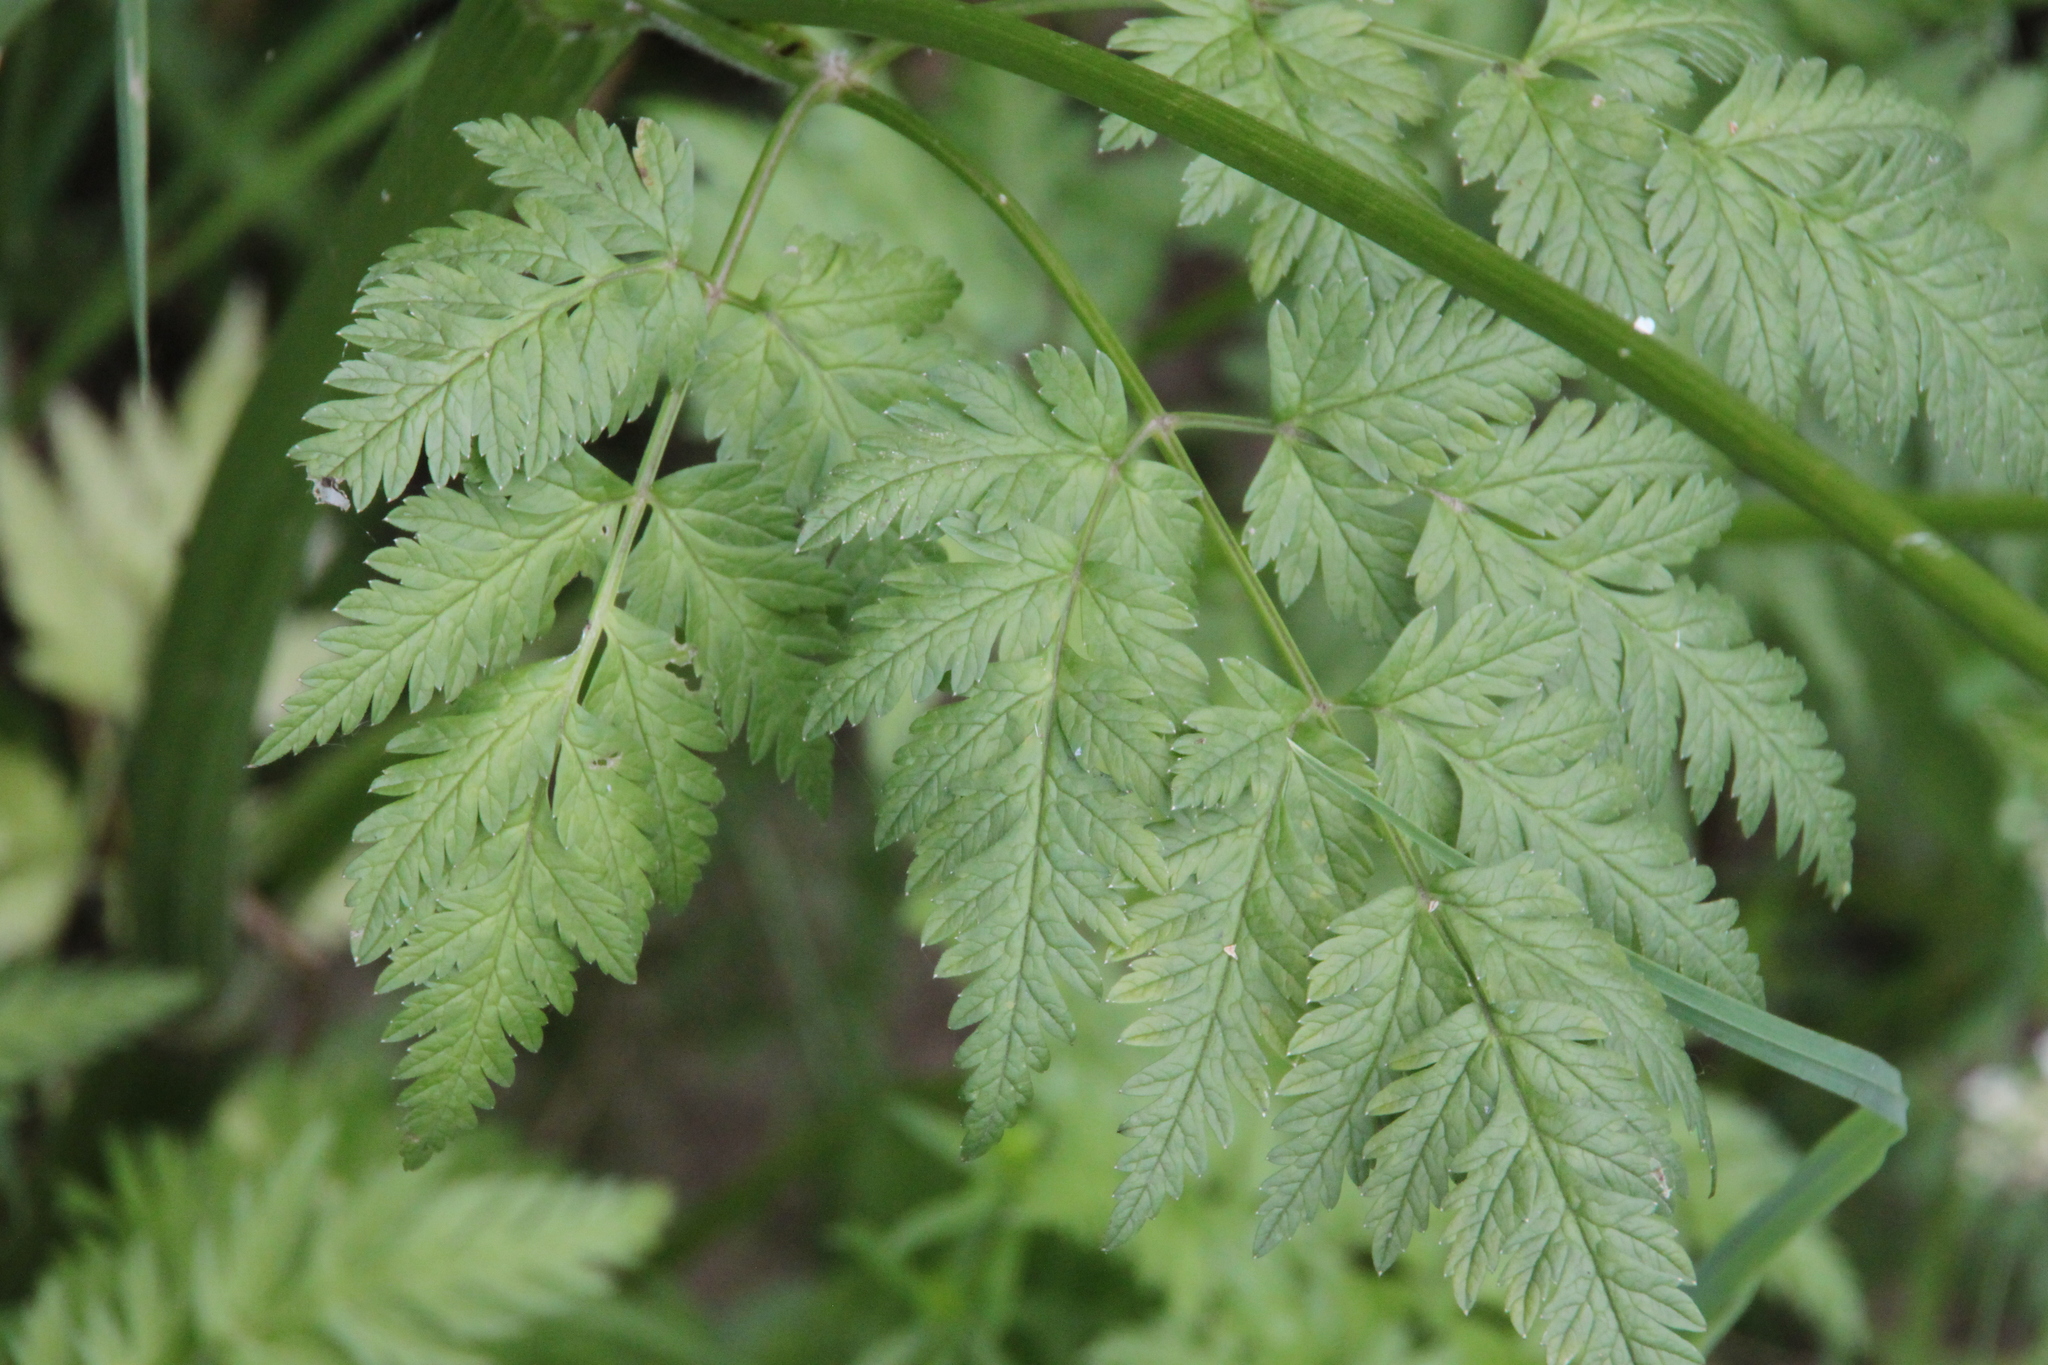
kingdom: Plantae
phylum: Tracheophyta
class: Magnoliopsida
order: Apiales
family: Apiaceae
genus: Anthriscus
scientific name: Anthriscus sylvestris
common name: Cow parsley
